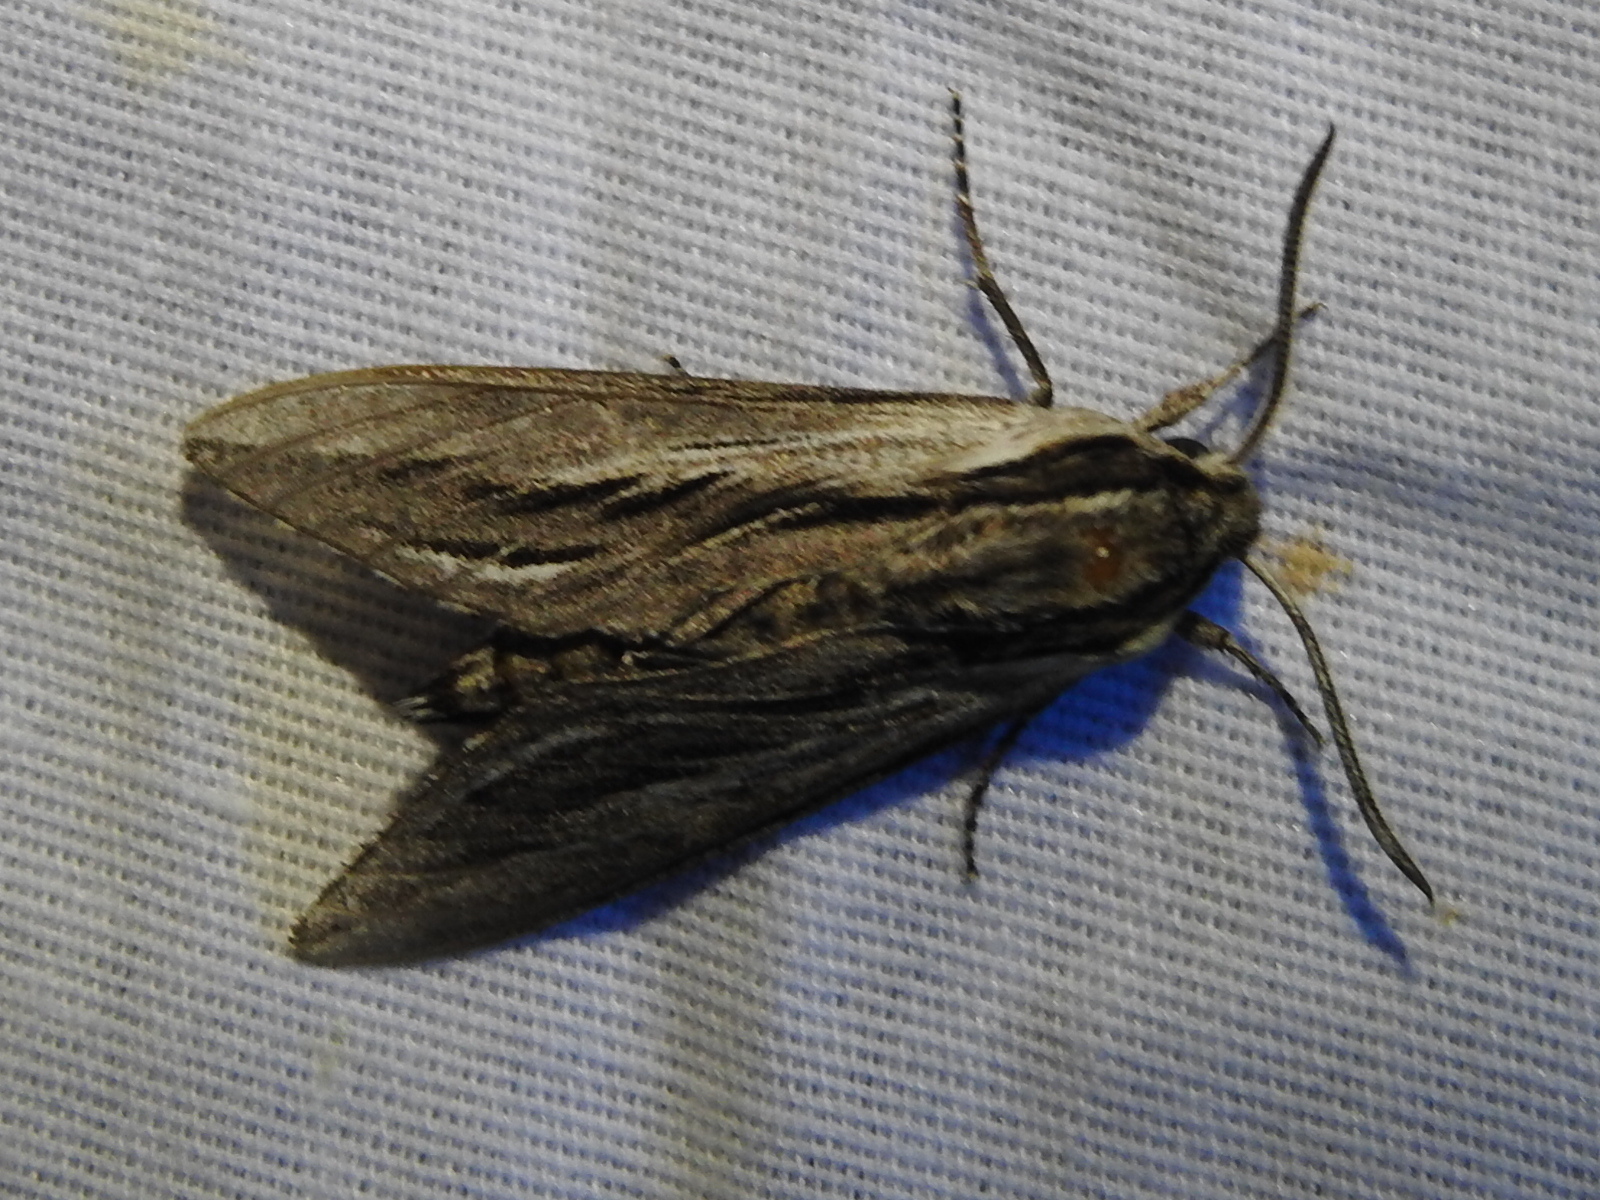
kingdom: Animalia
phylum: Arthropoda
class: Insecta
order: Lepidoptera
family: Sphingidae
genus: Sphinx
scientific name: Sphinx vanbuskirki
